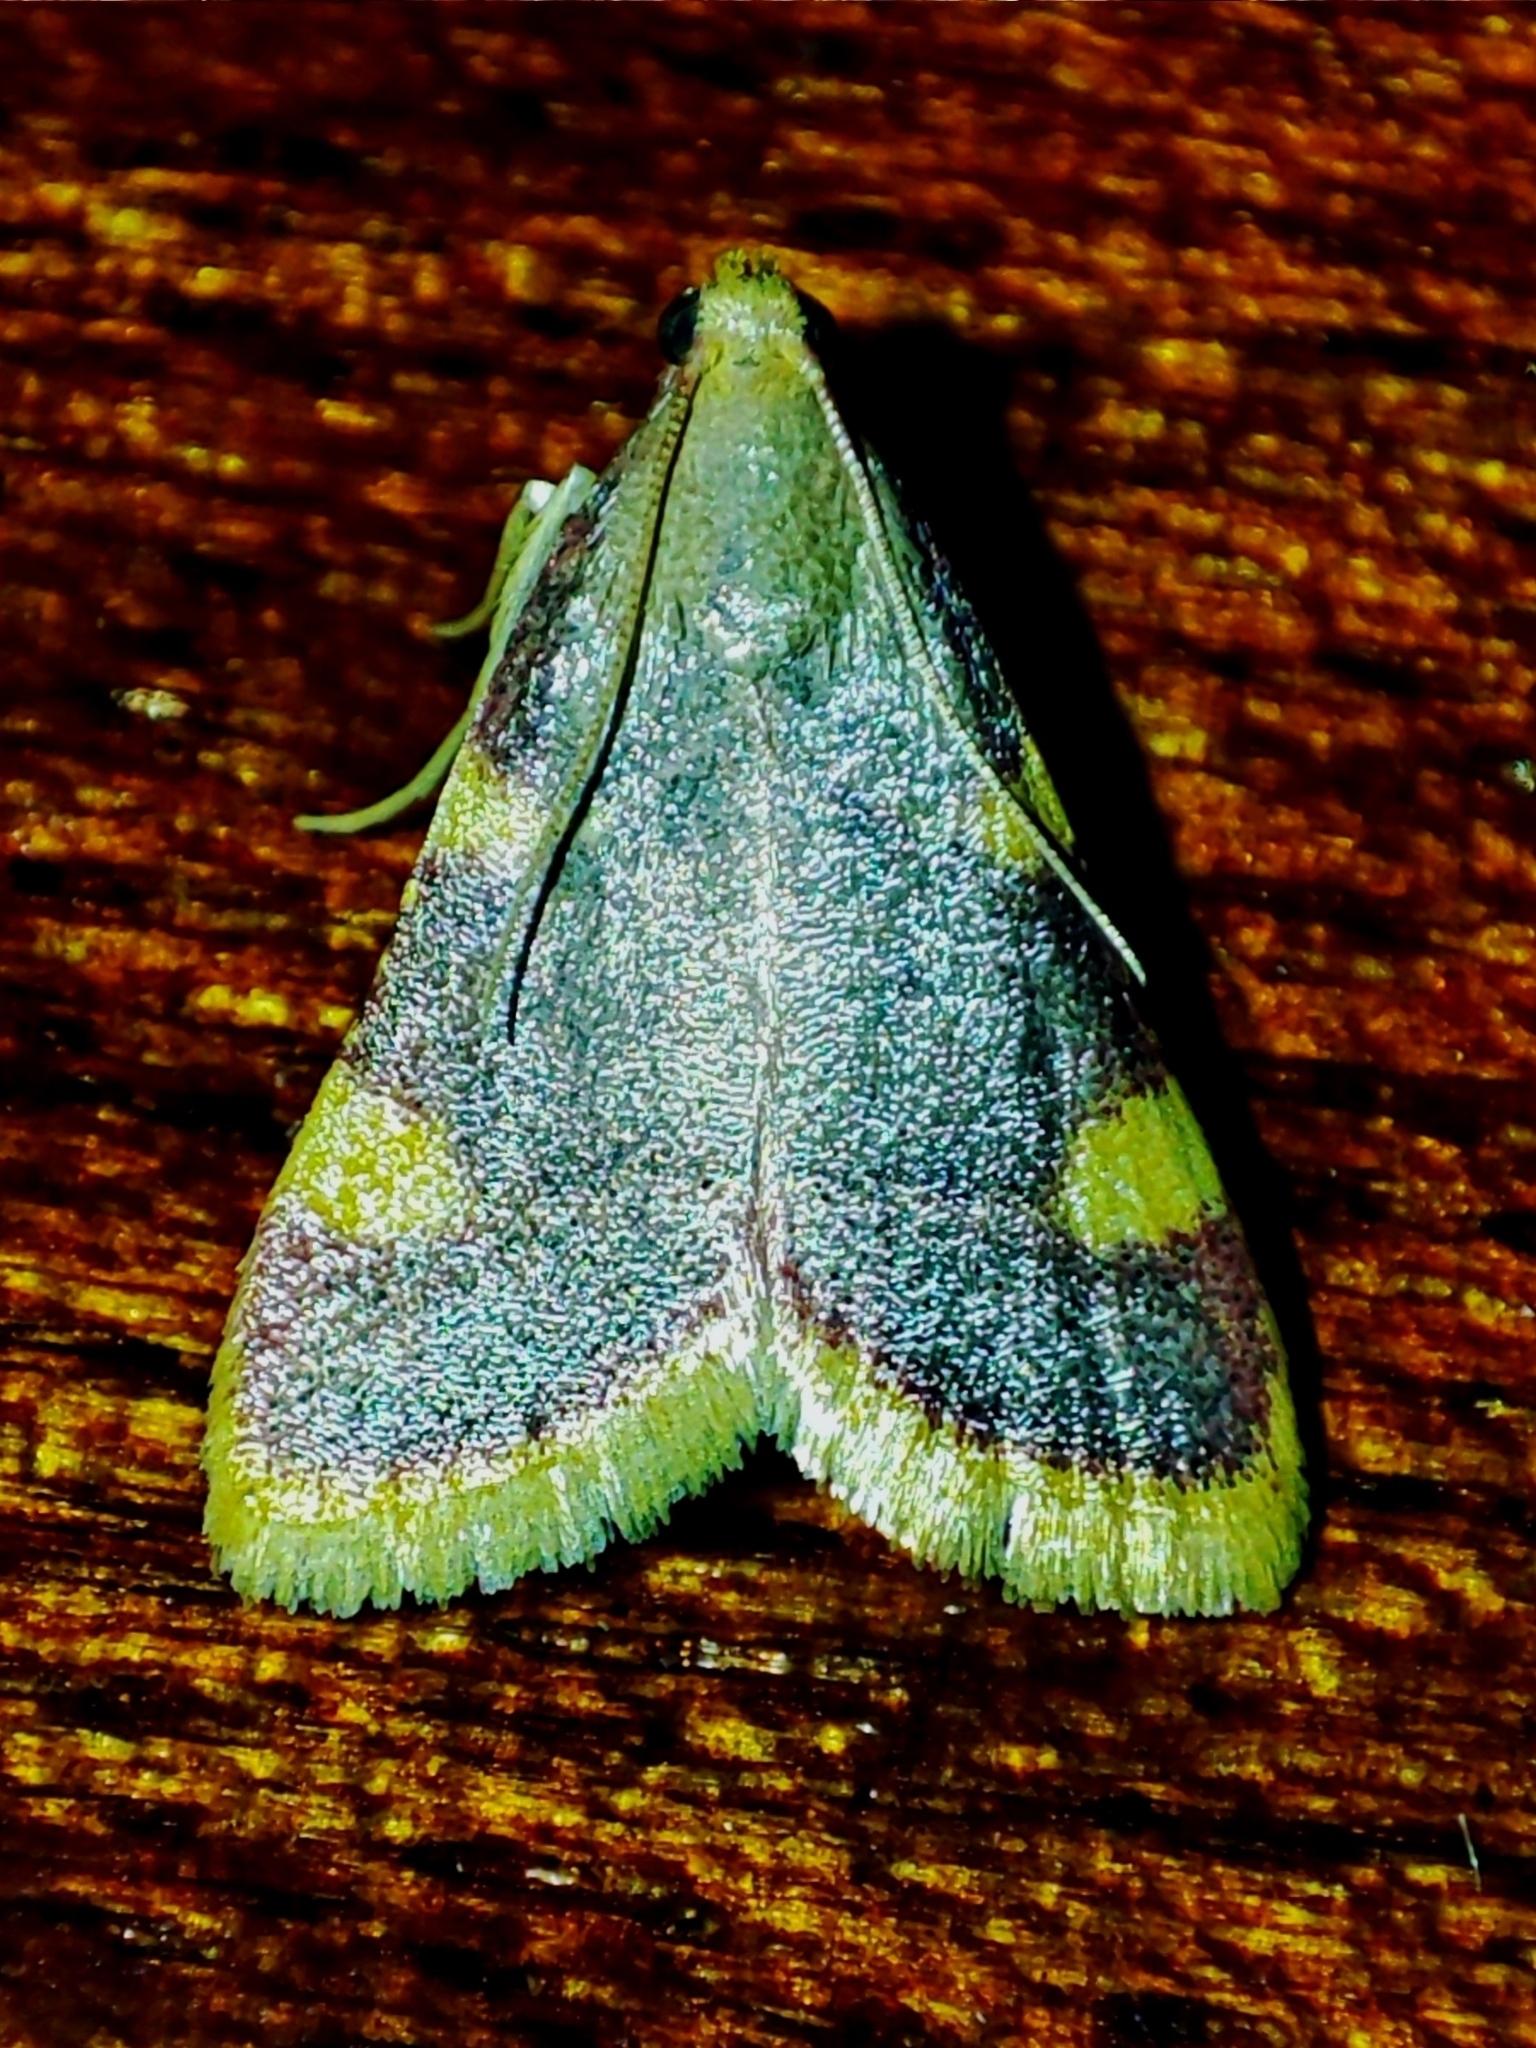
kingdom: Animalia
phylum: Arthropoda
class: Insecta
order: Lepidoptera
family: Pyralidae
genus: Hypsopygia
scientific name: Hypsopygia costalis
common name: Gold triangle
